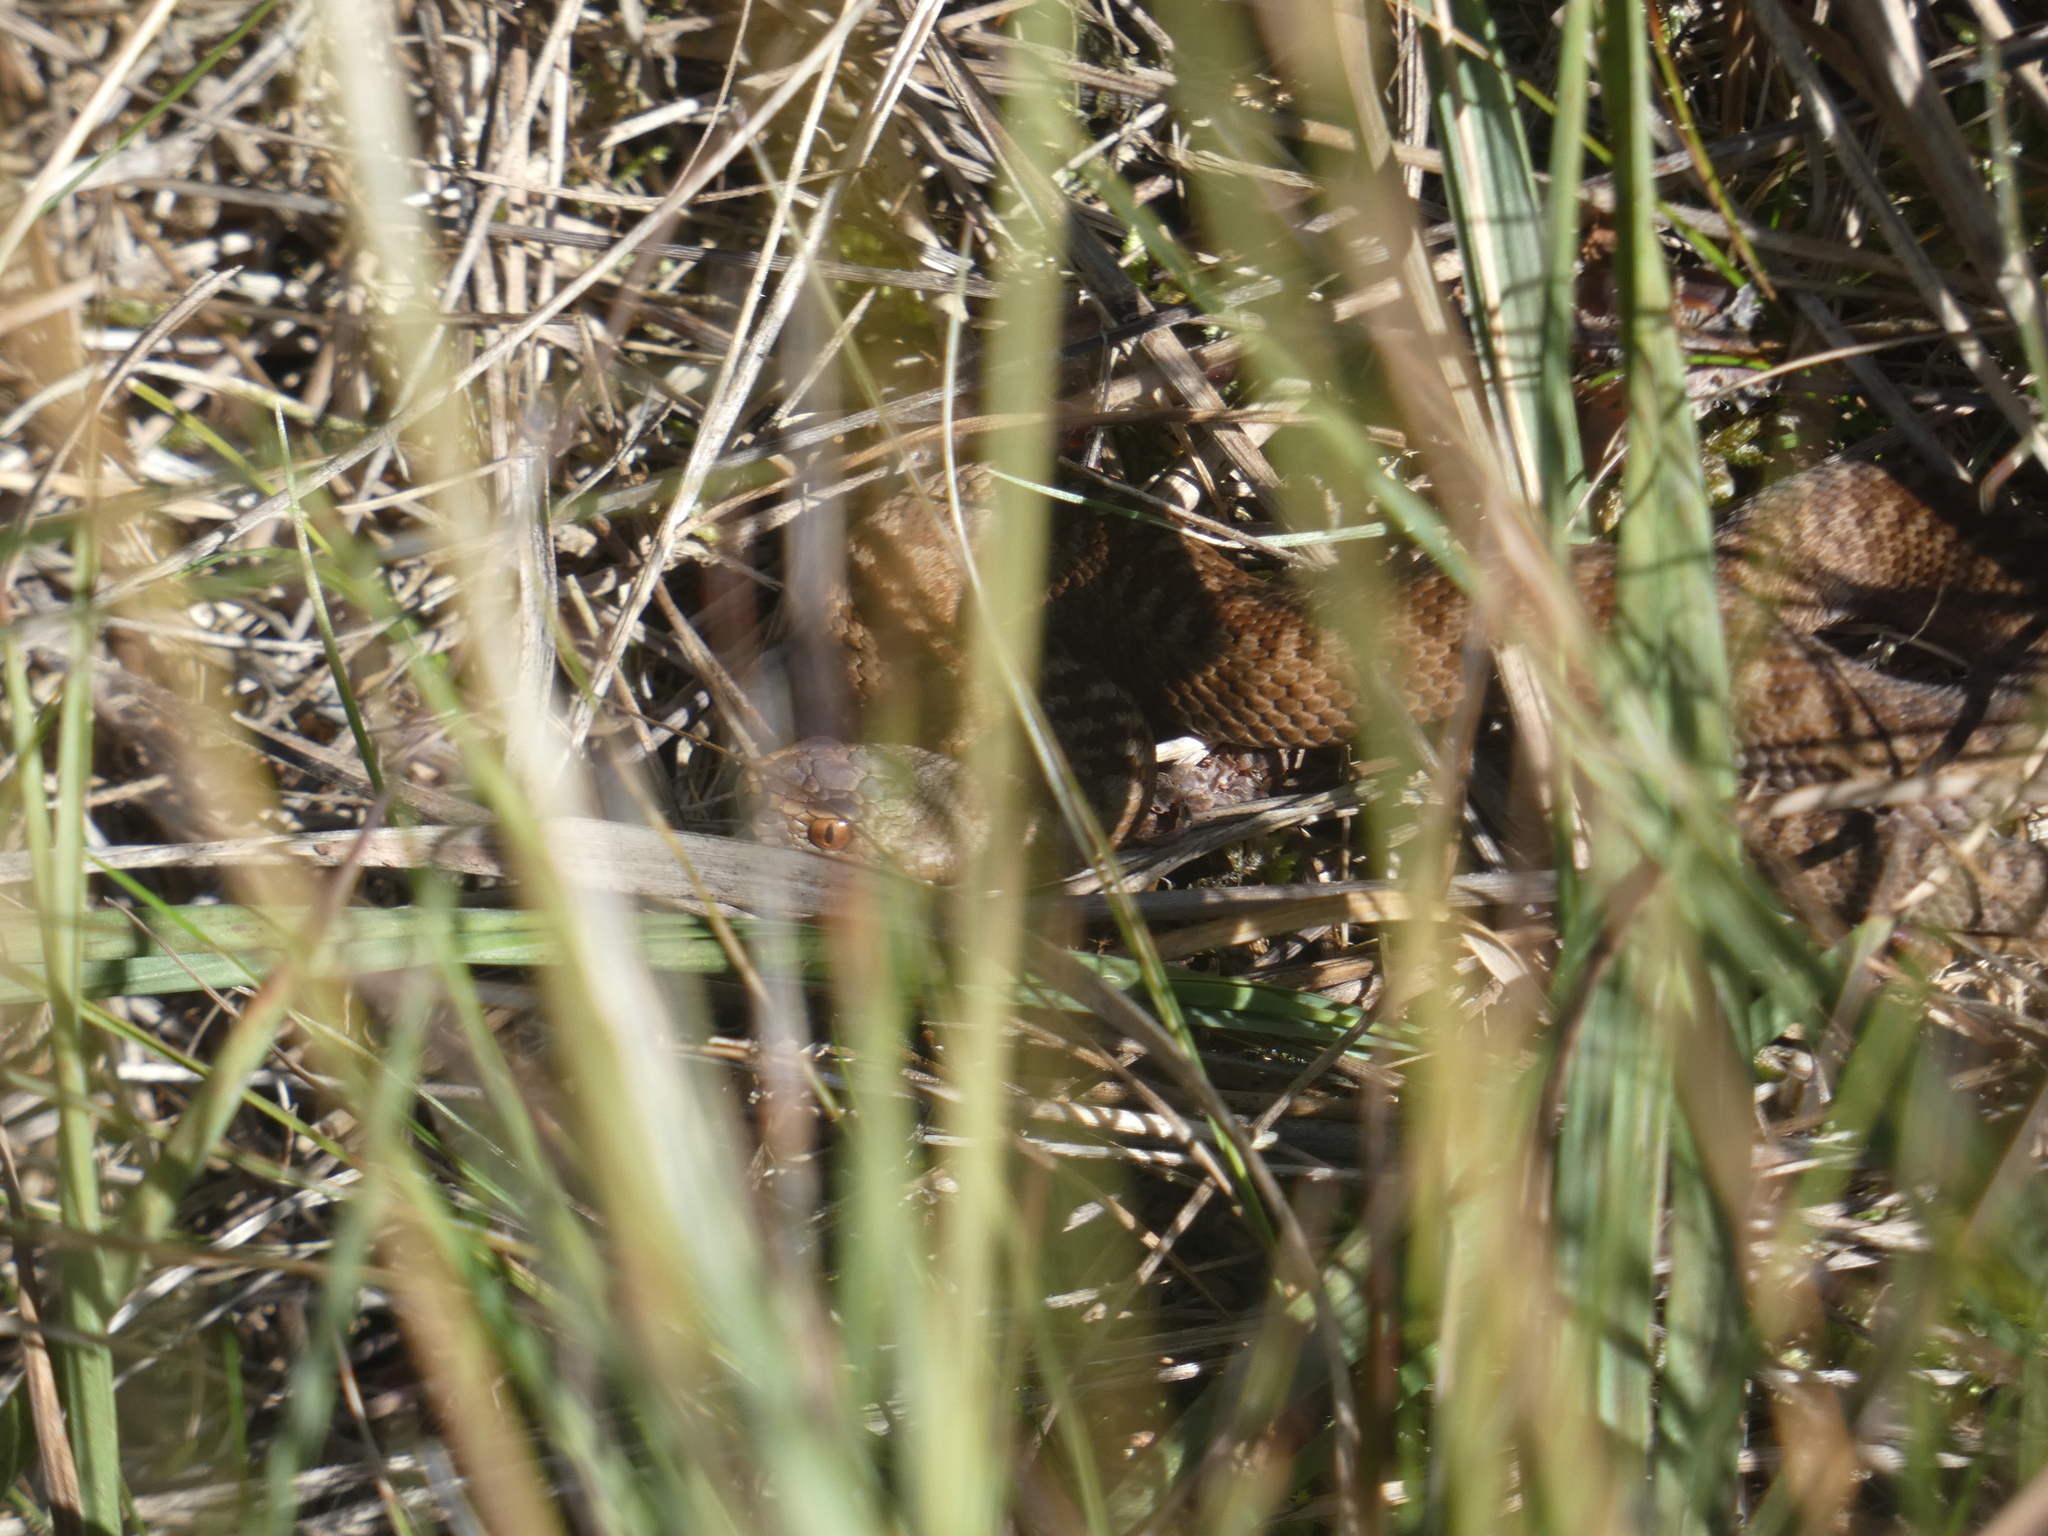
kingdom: Animalia
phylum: Chordata
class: Squamata
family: Viperidae
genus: Vipera
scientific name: Vipera berus
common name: Adder
